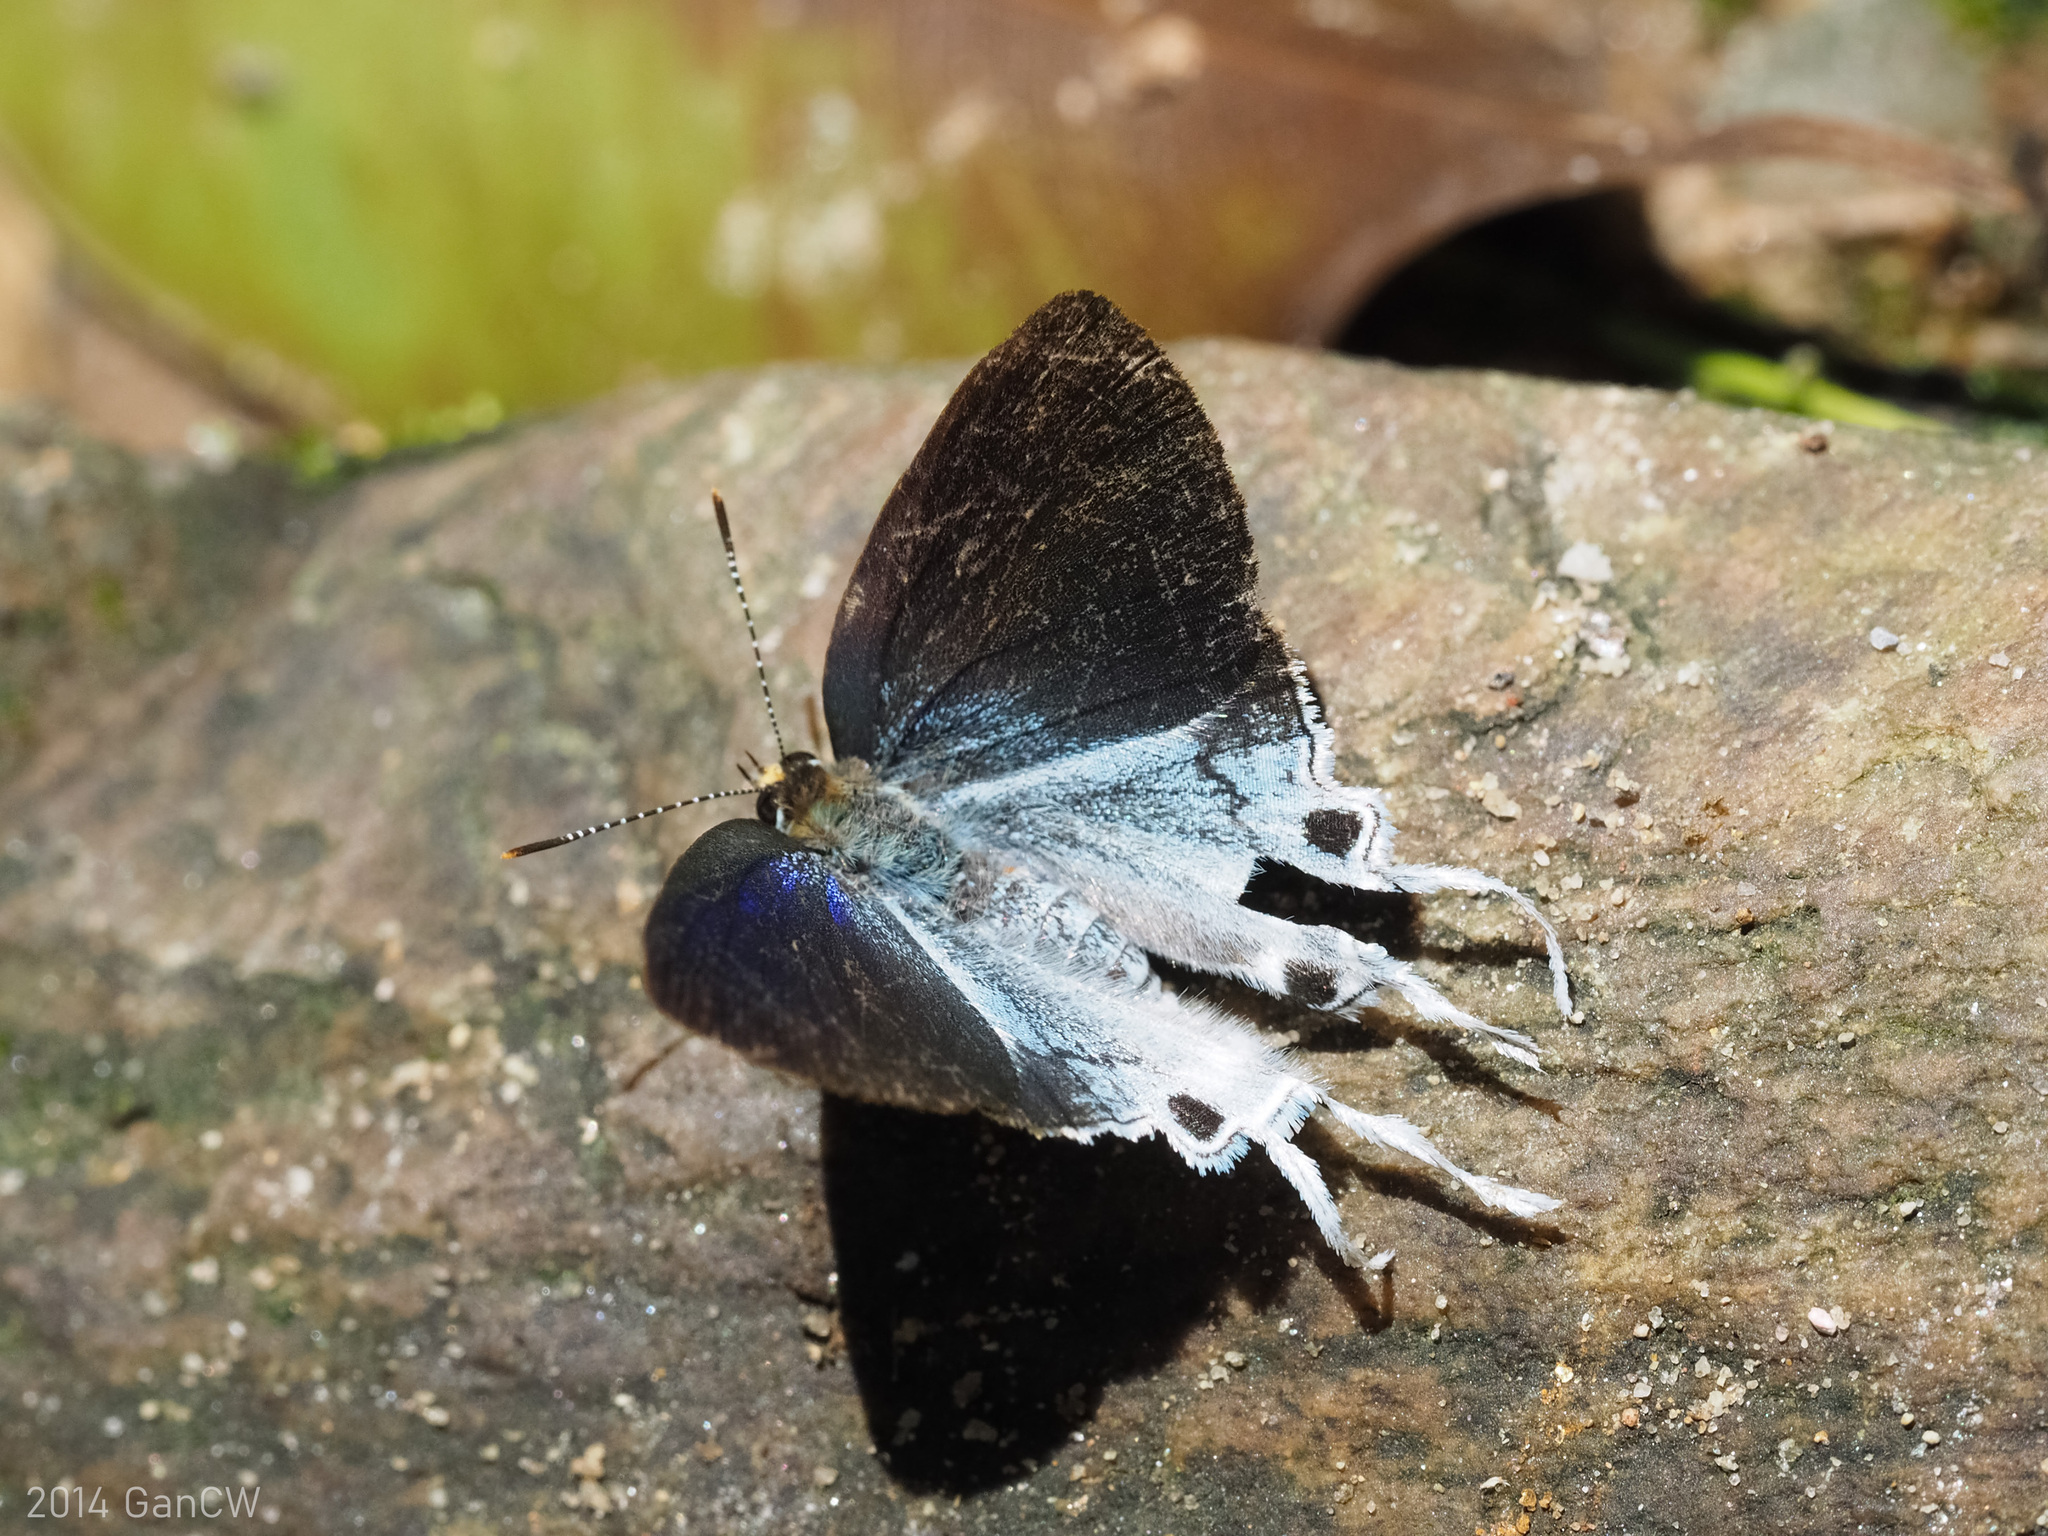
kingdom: Animalia
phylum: Arthropoda
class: Insecta
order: Lepidoptera
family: Lycaenidae
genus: Zeltus
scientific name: Zeltus amasa
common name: Fluffy tit
